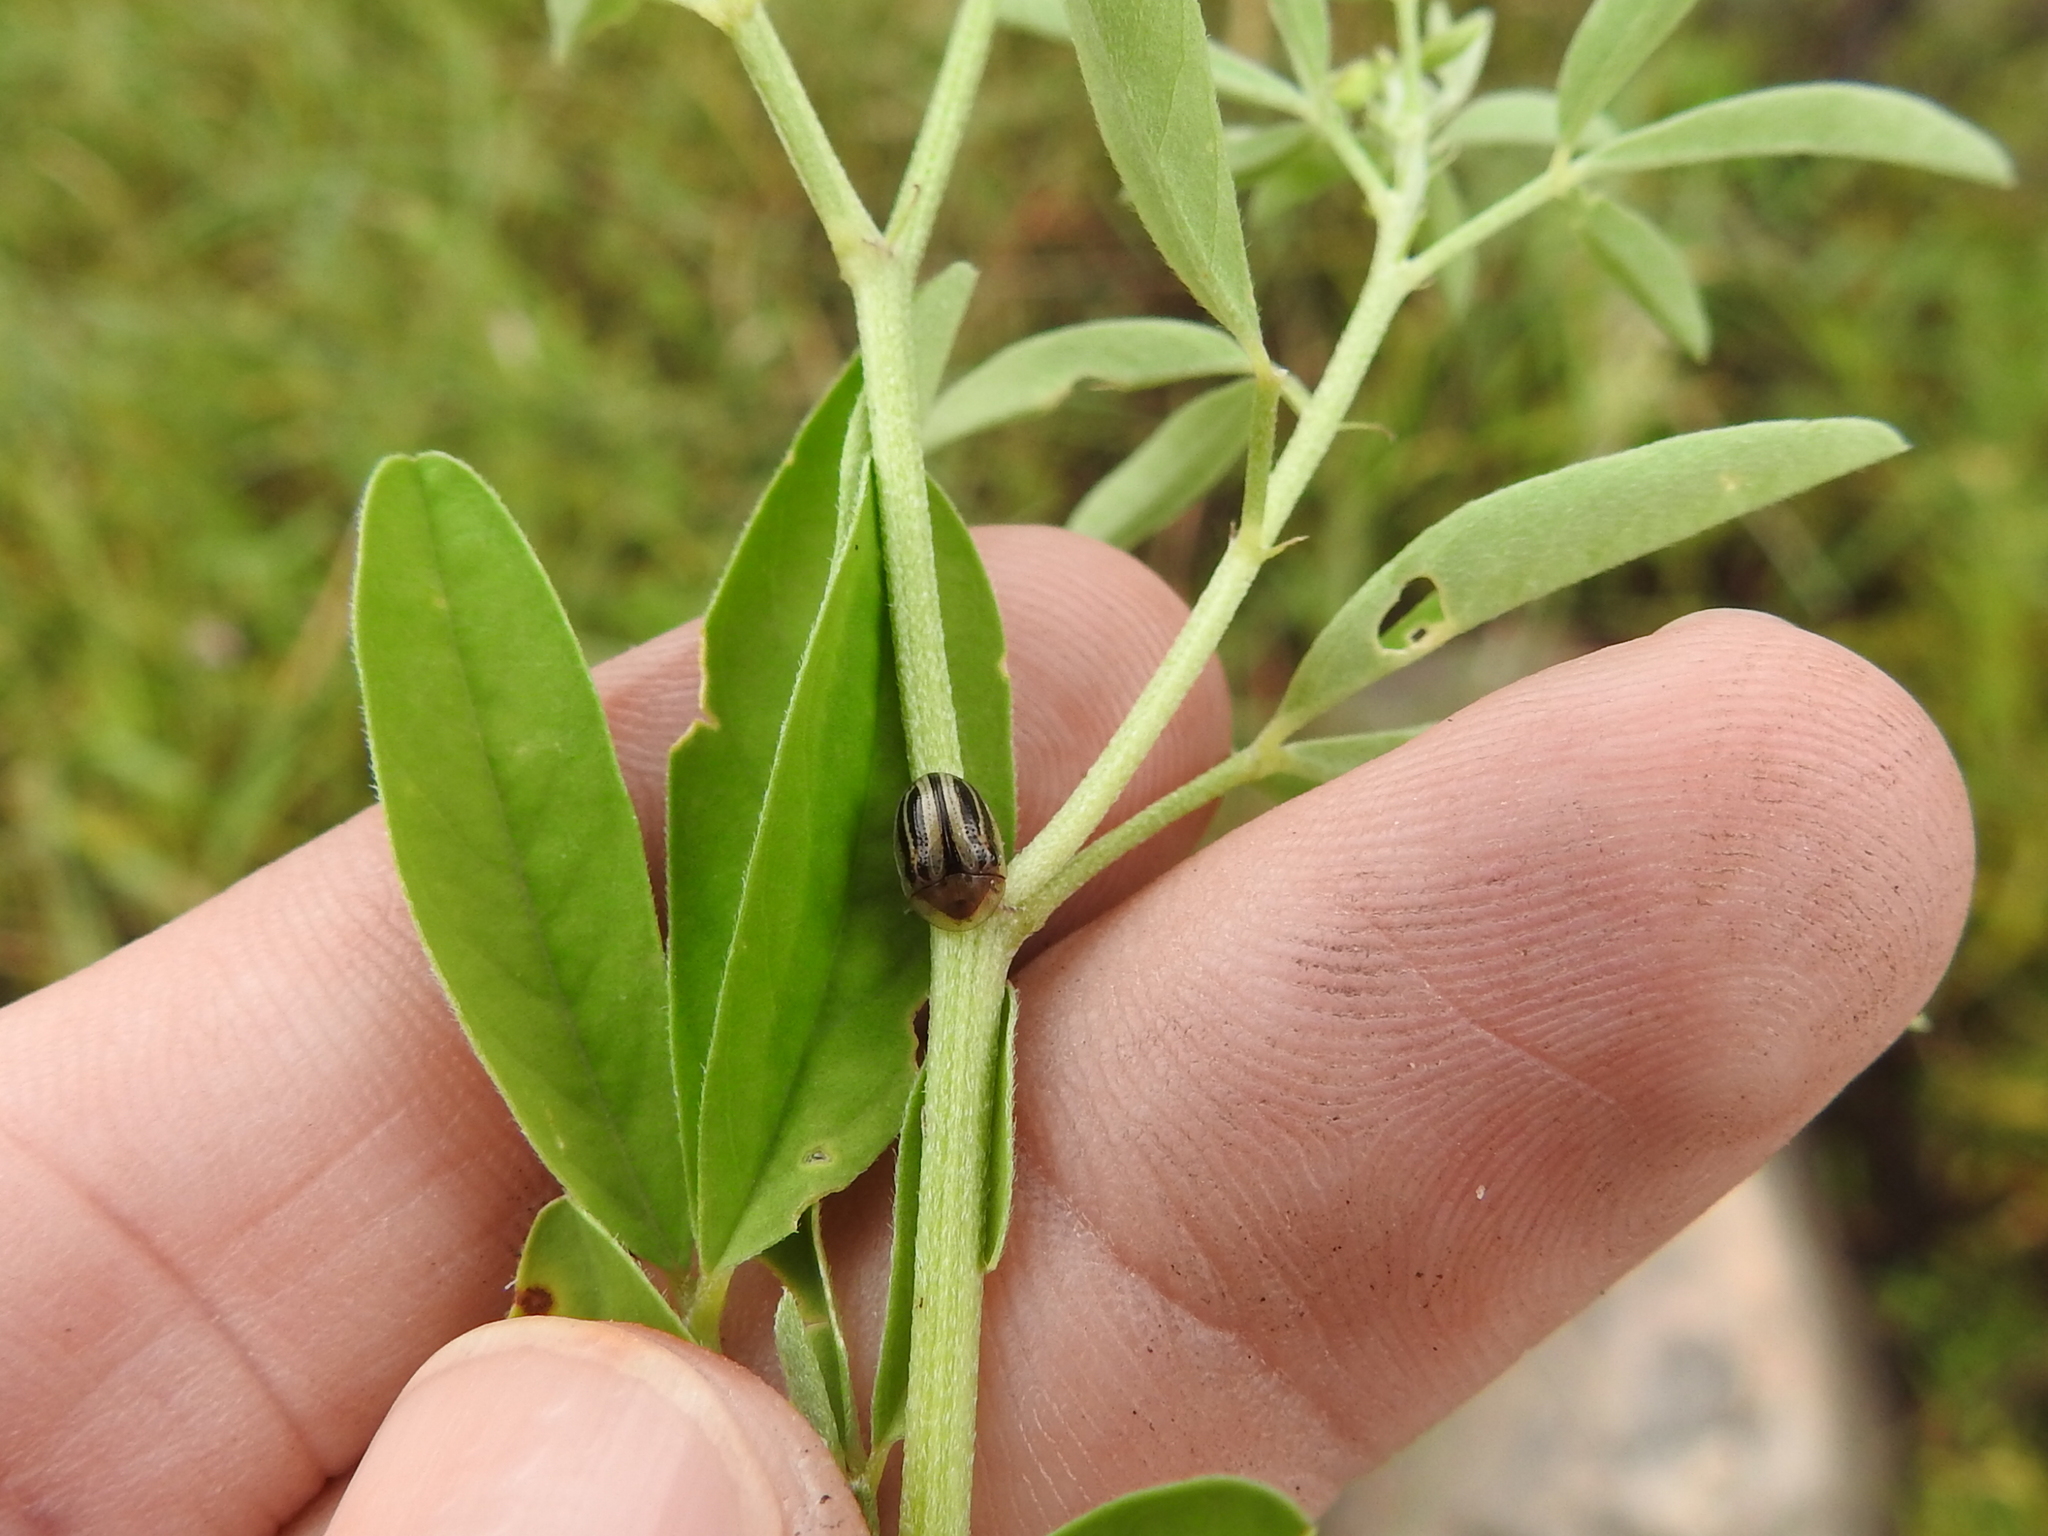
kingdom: Animalia
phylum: Arthropoda
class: Insecta
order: Coleoptera
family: Chrysomelidae
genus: Agroiconota
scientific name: Agroiconota bivittata
